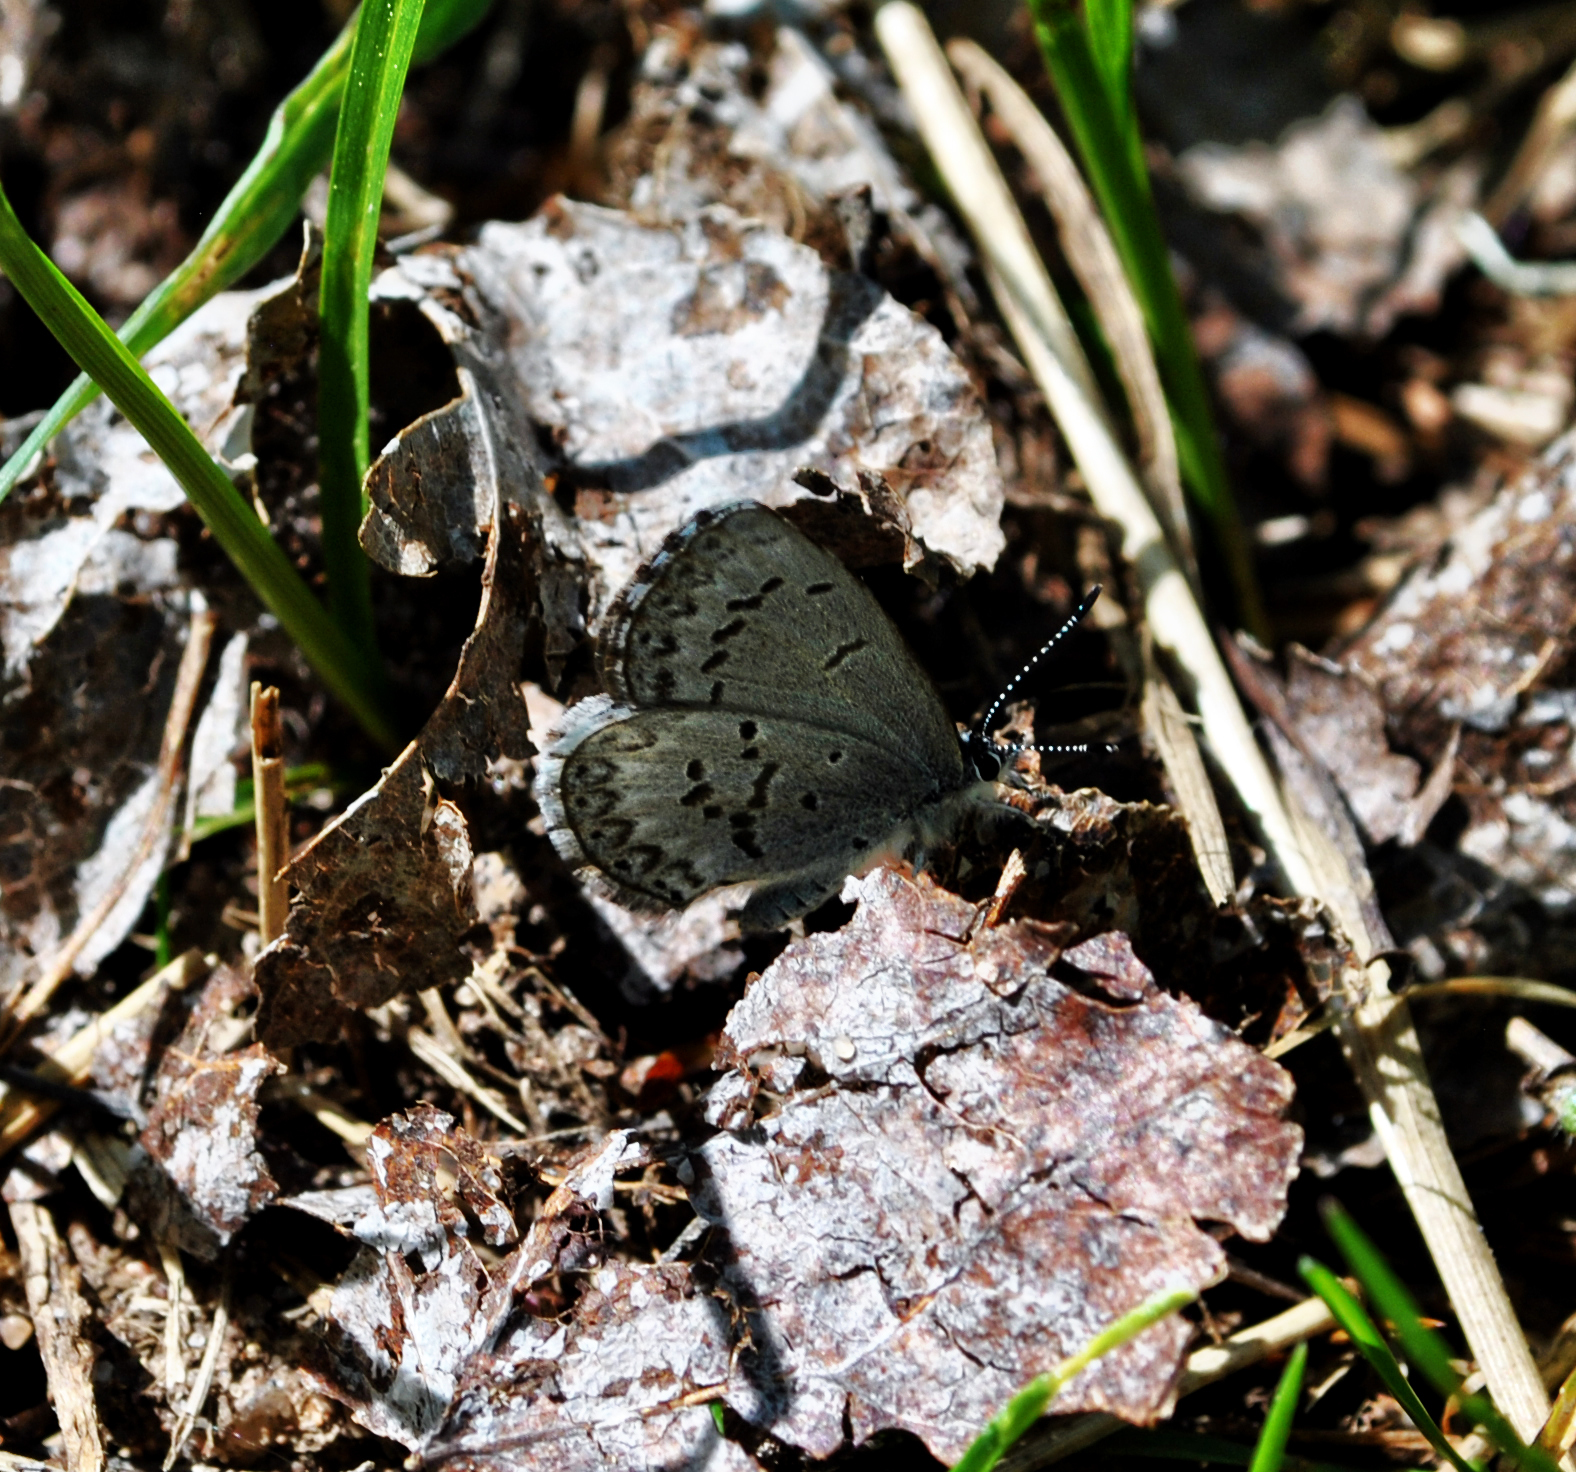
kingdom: Animalia
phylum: Arthropoda
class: Insecta
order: Lepidoptera
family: Lycaenidae
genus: Celastrina
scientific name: Celastrina lucia
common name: Lucia azure
